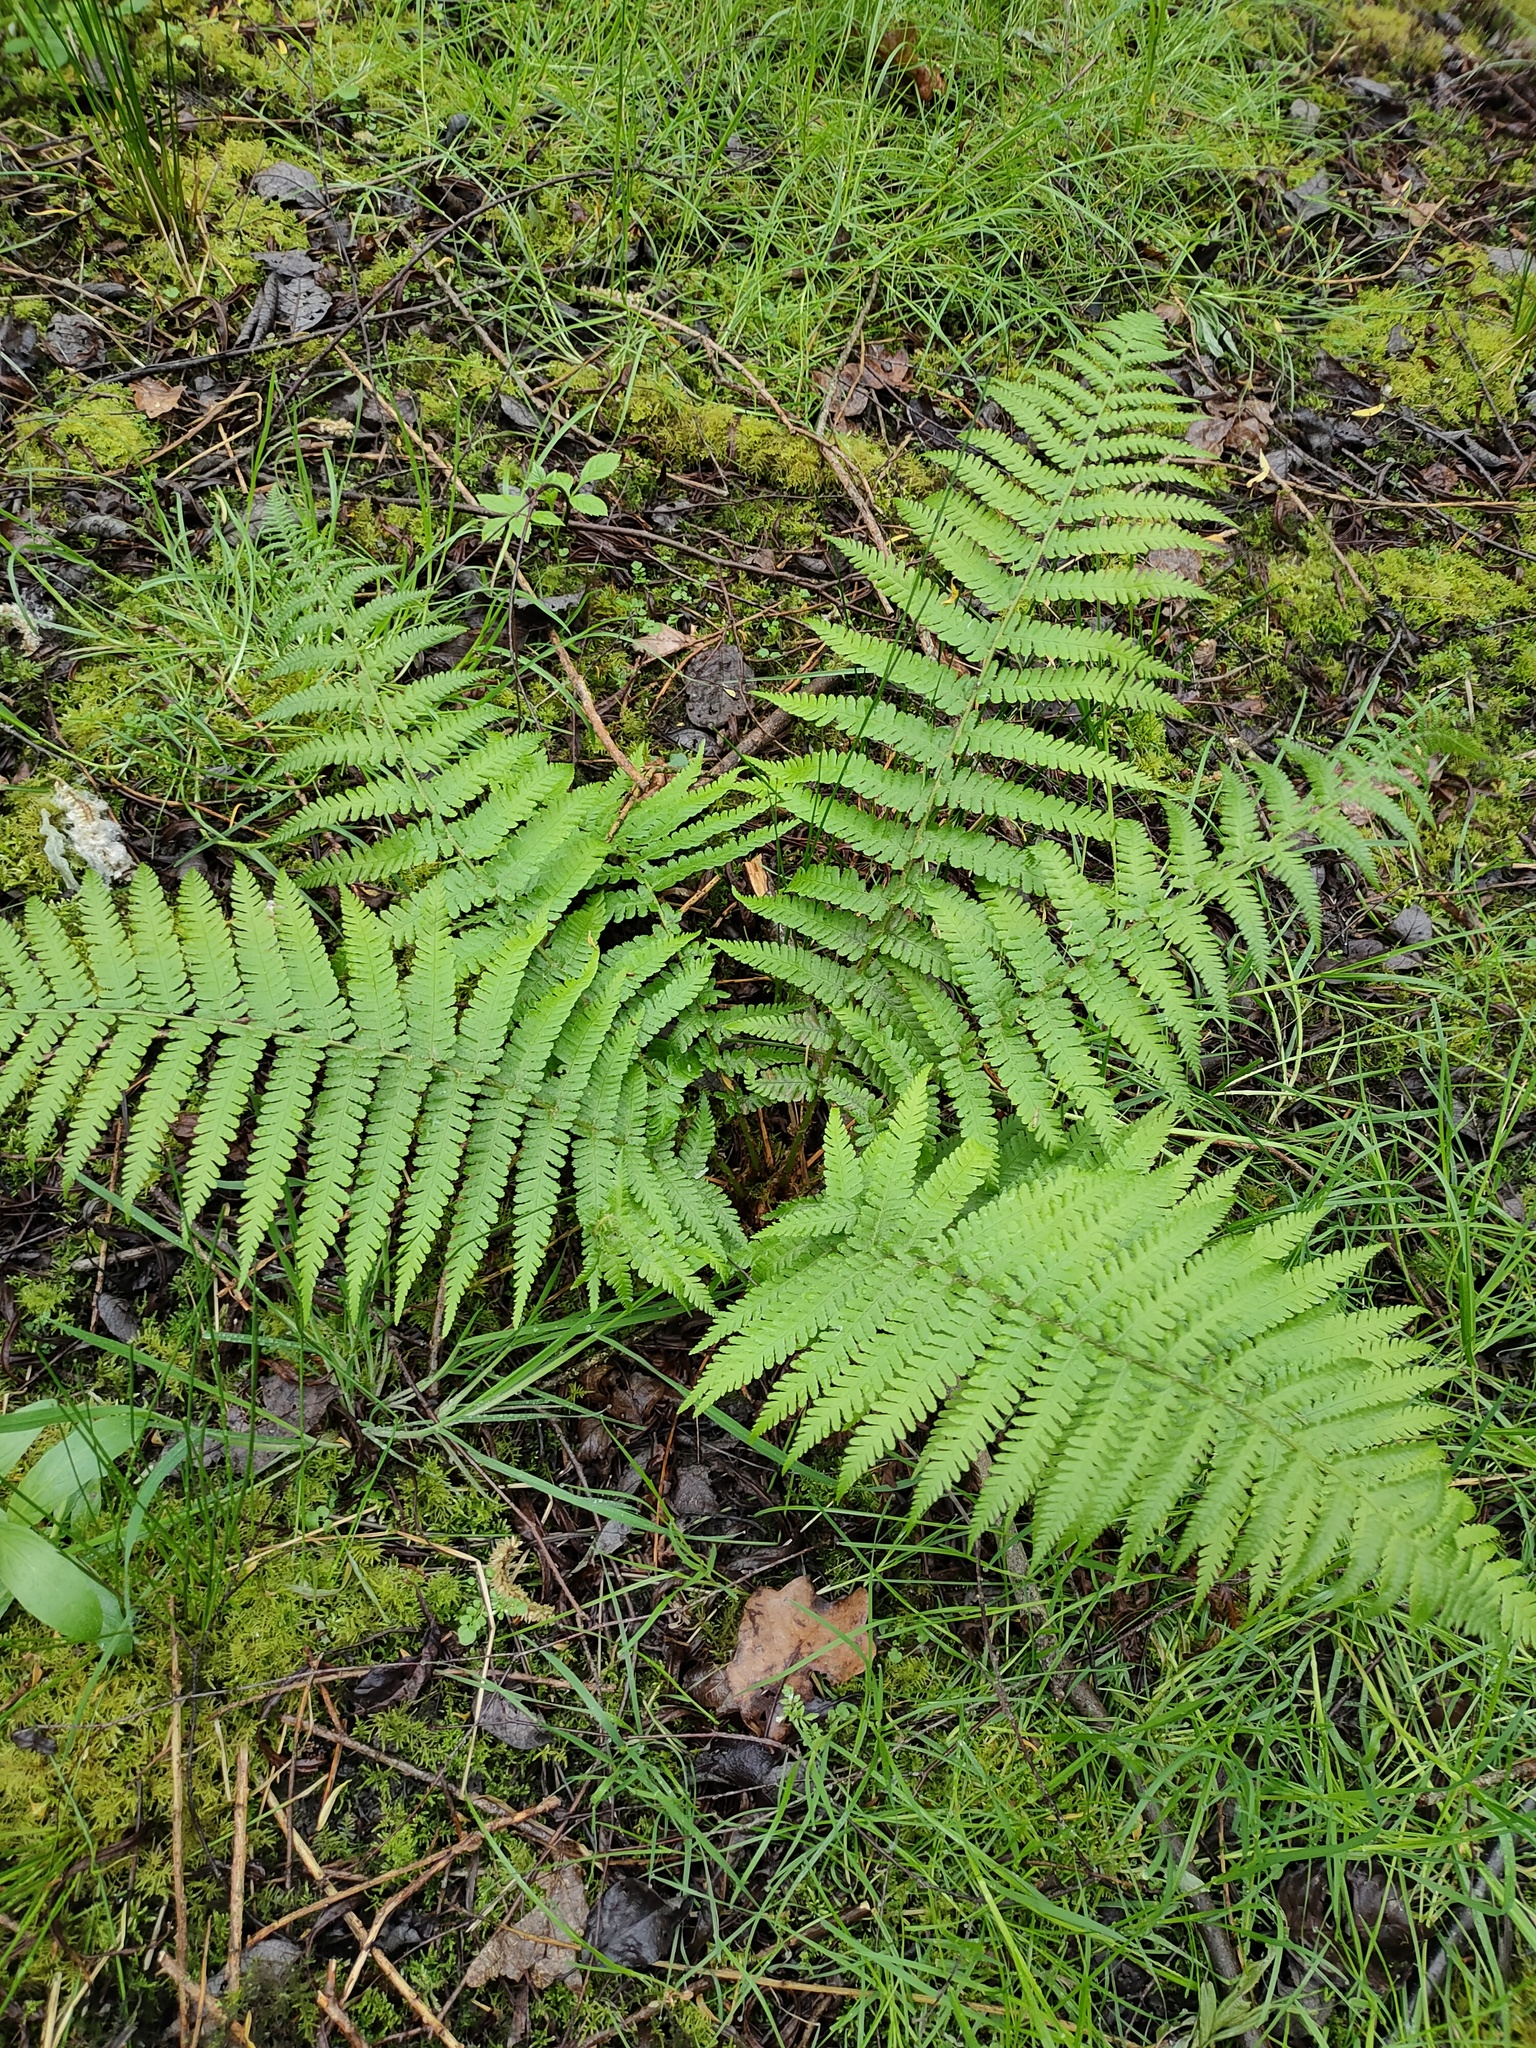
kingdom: Plantae
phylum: Tracheophyta
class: Polypodiopsida
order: Polypodiales
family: Dryopteridaceae
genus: Dryopteris
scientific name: Dryopteris filix-mas
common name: Male fern
